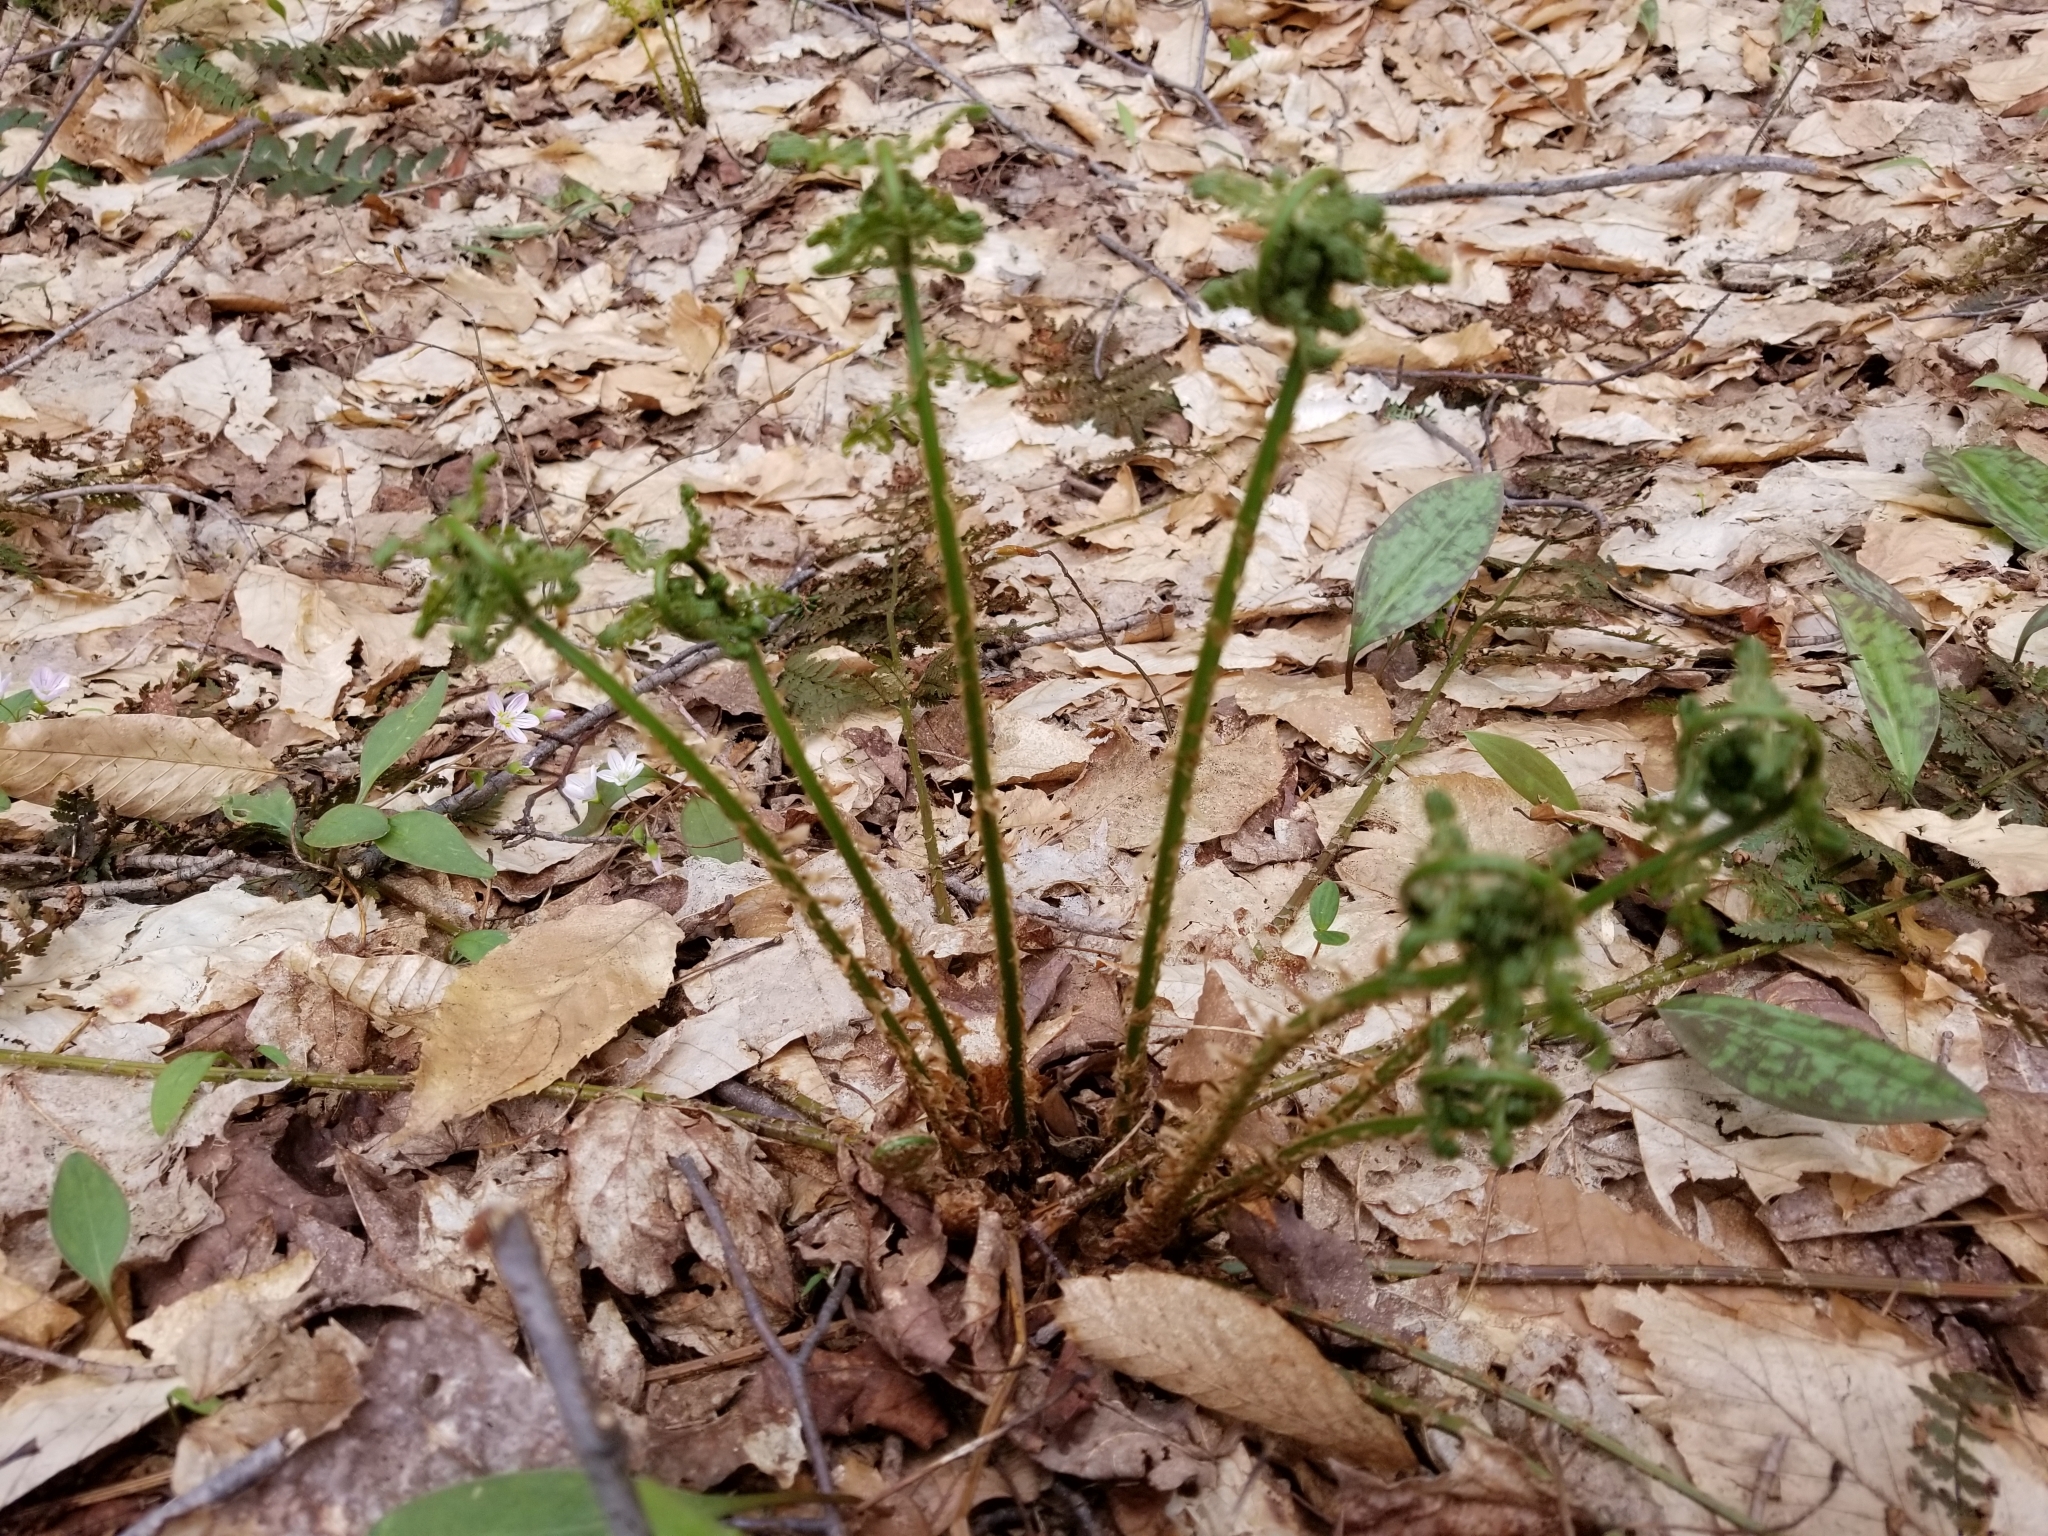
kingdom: Plantae
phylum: Tracheophyta
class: Polypodiopsida
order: Polypodiales
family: Dryopteridaceae
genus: Dryopteris
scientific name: Dryopteris intermedia
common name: Evergreen wood fern
